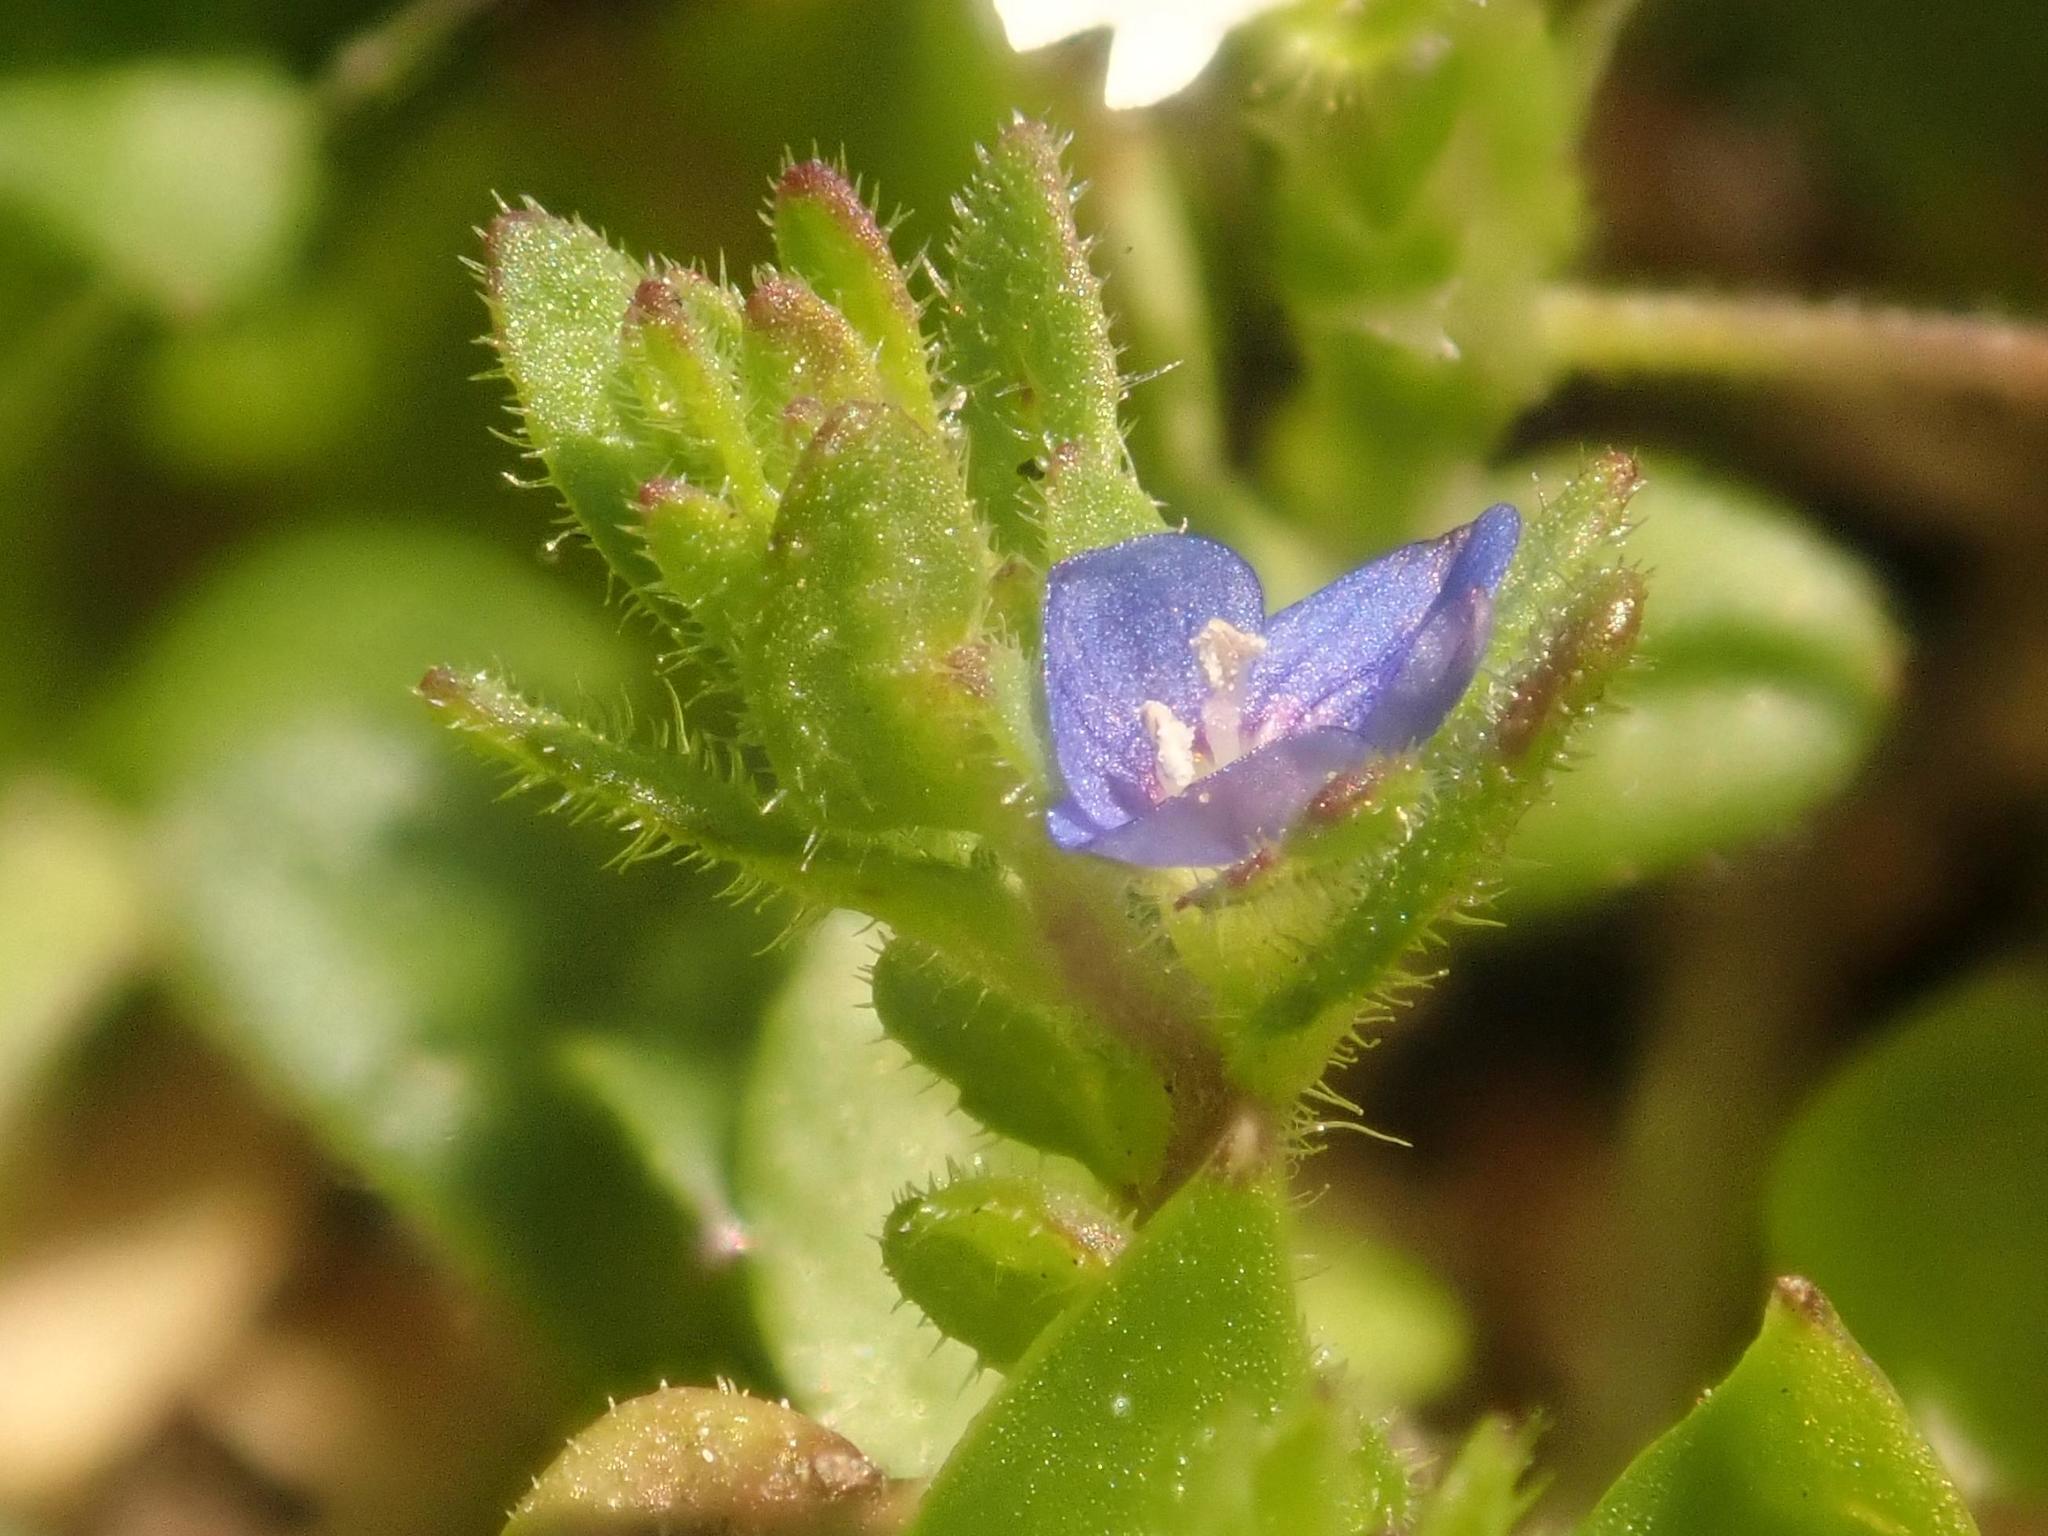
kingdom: Plantae
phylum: Tracheophyta
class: Magnoliopsida
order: Lamiales
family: Plantaginaceae
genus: Veronica
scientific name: Veronica arvensis
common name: Corn speedwell
